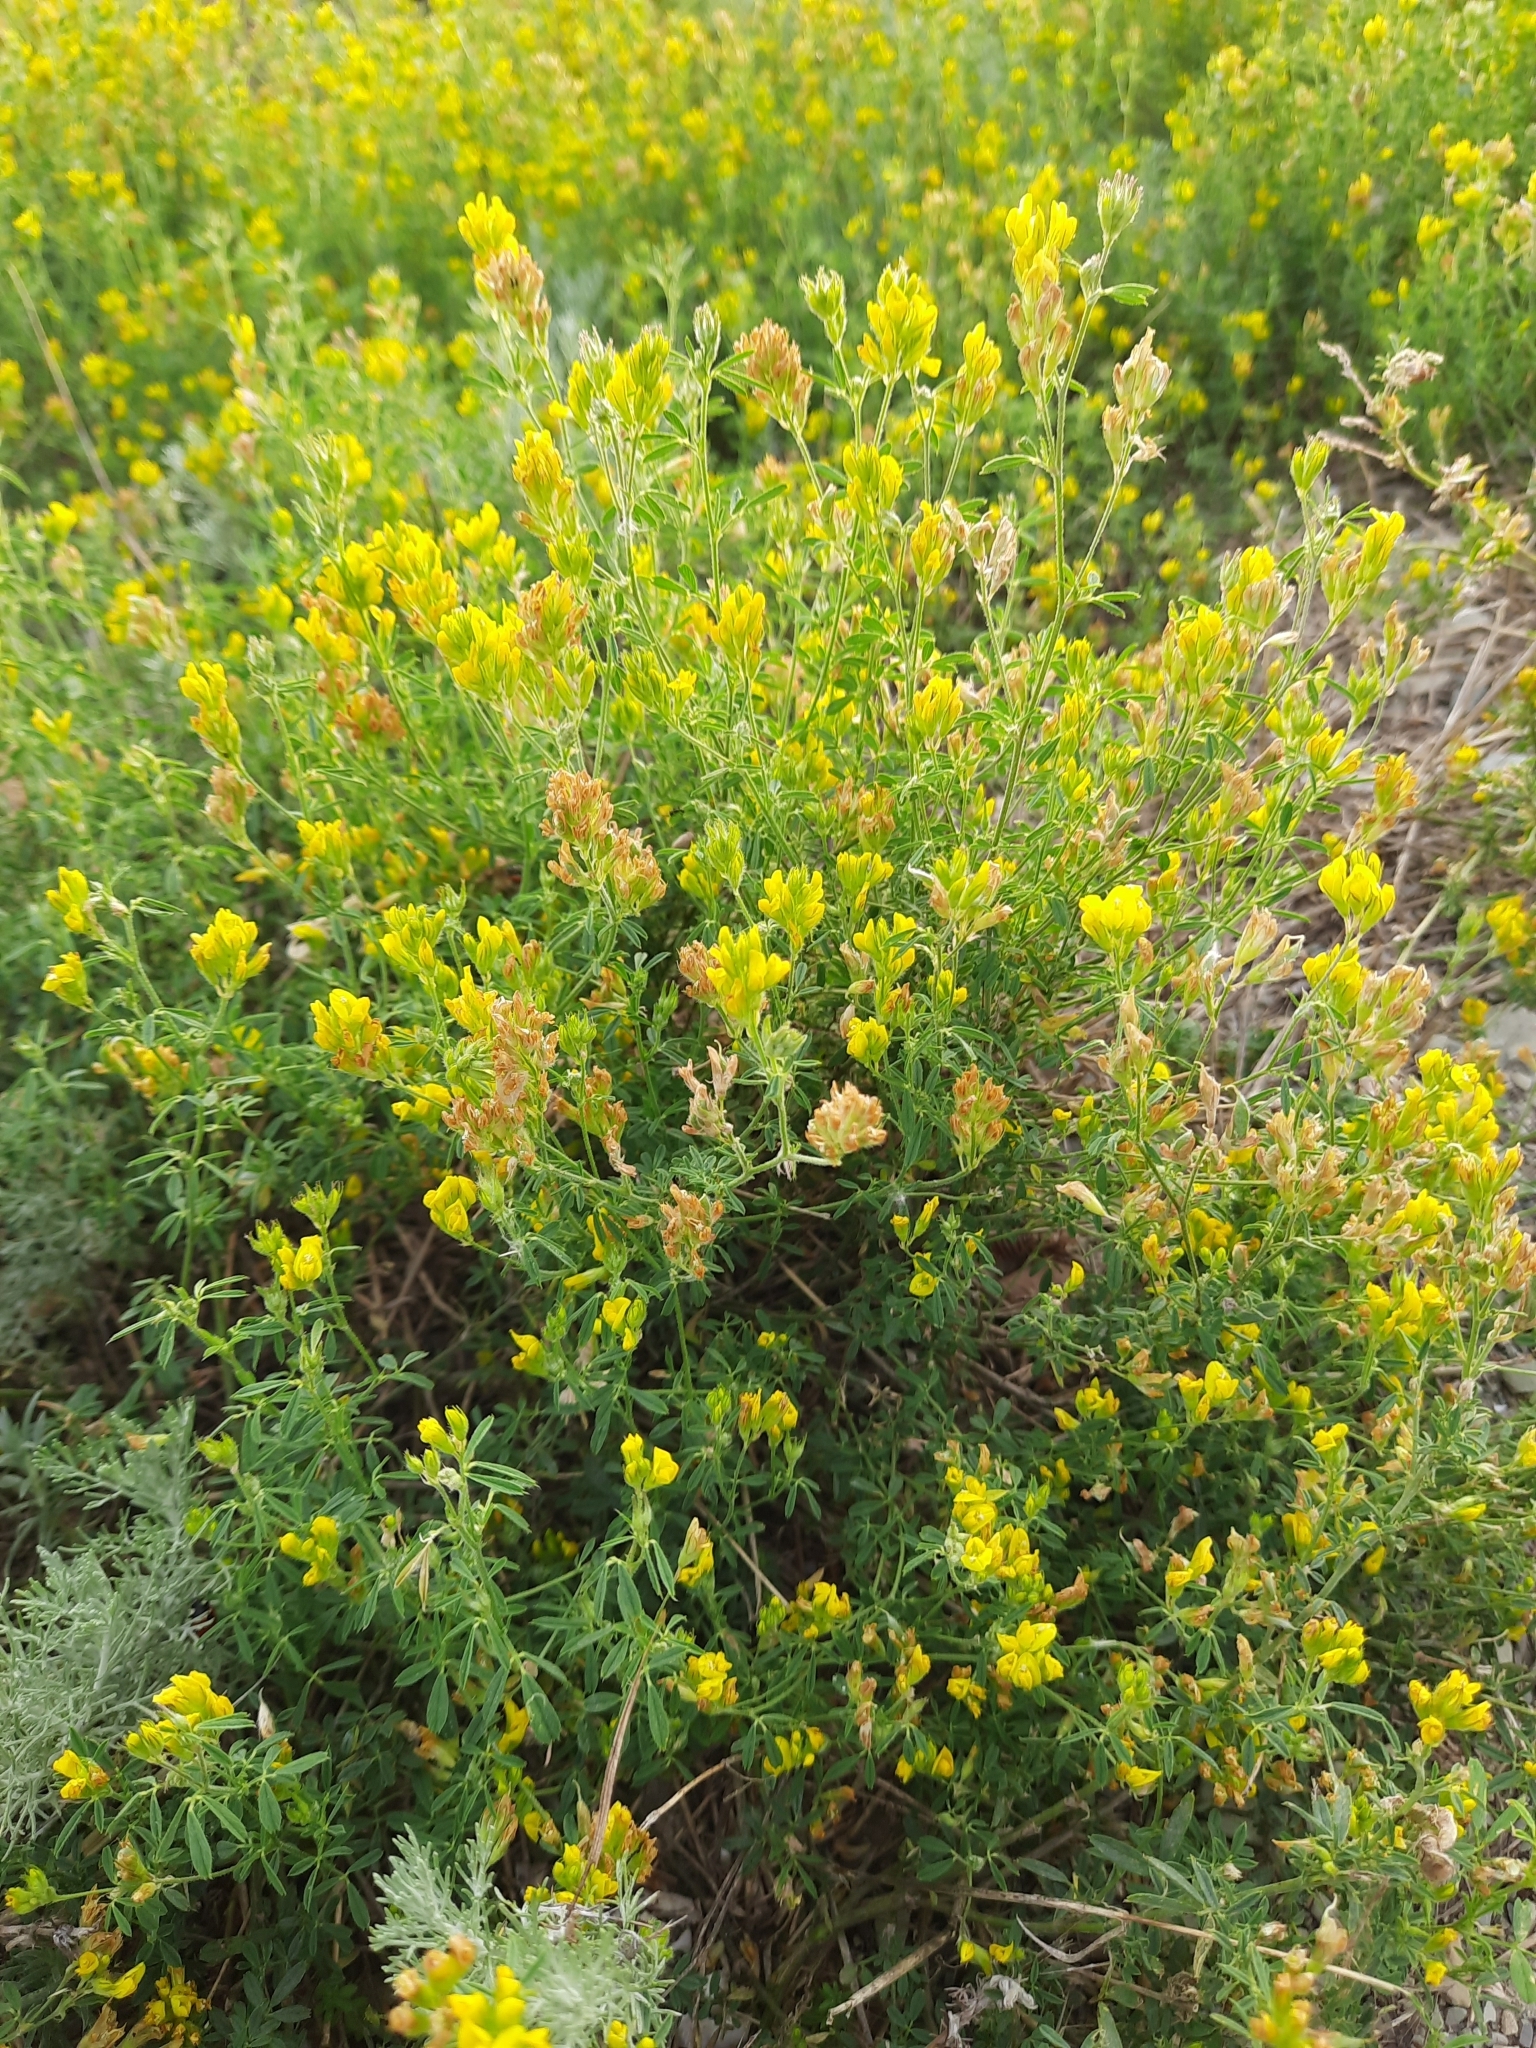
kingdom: Plantae
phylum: Tracheophyta
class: Magnoliopsida
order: Fabales
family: Fabaceae
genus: Medicago
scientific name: Medicago falcata
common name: Sickle medick
